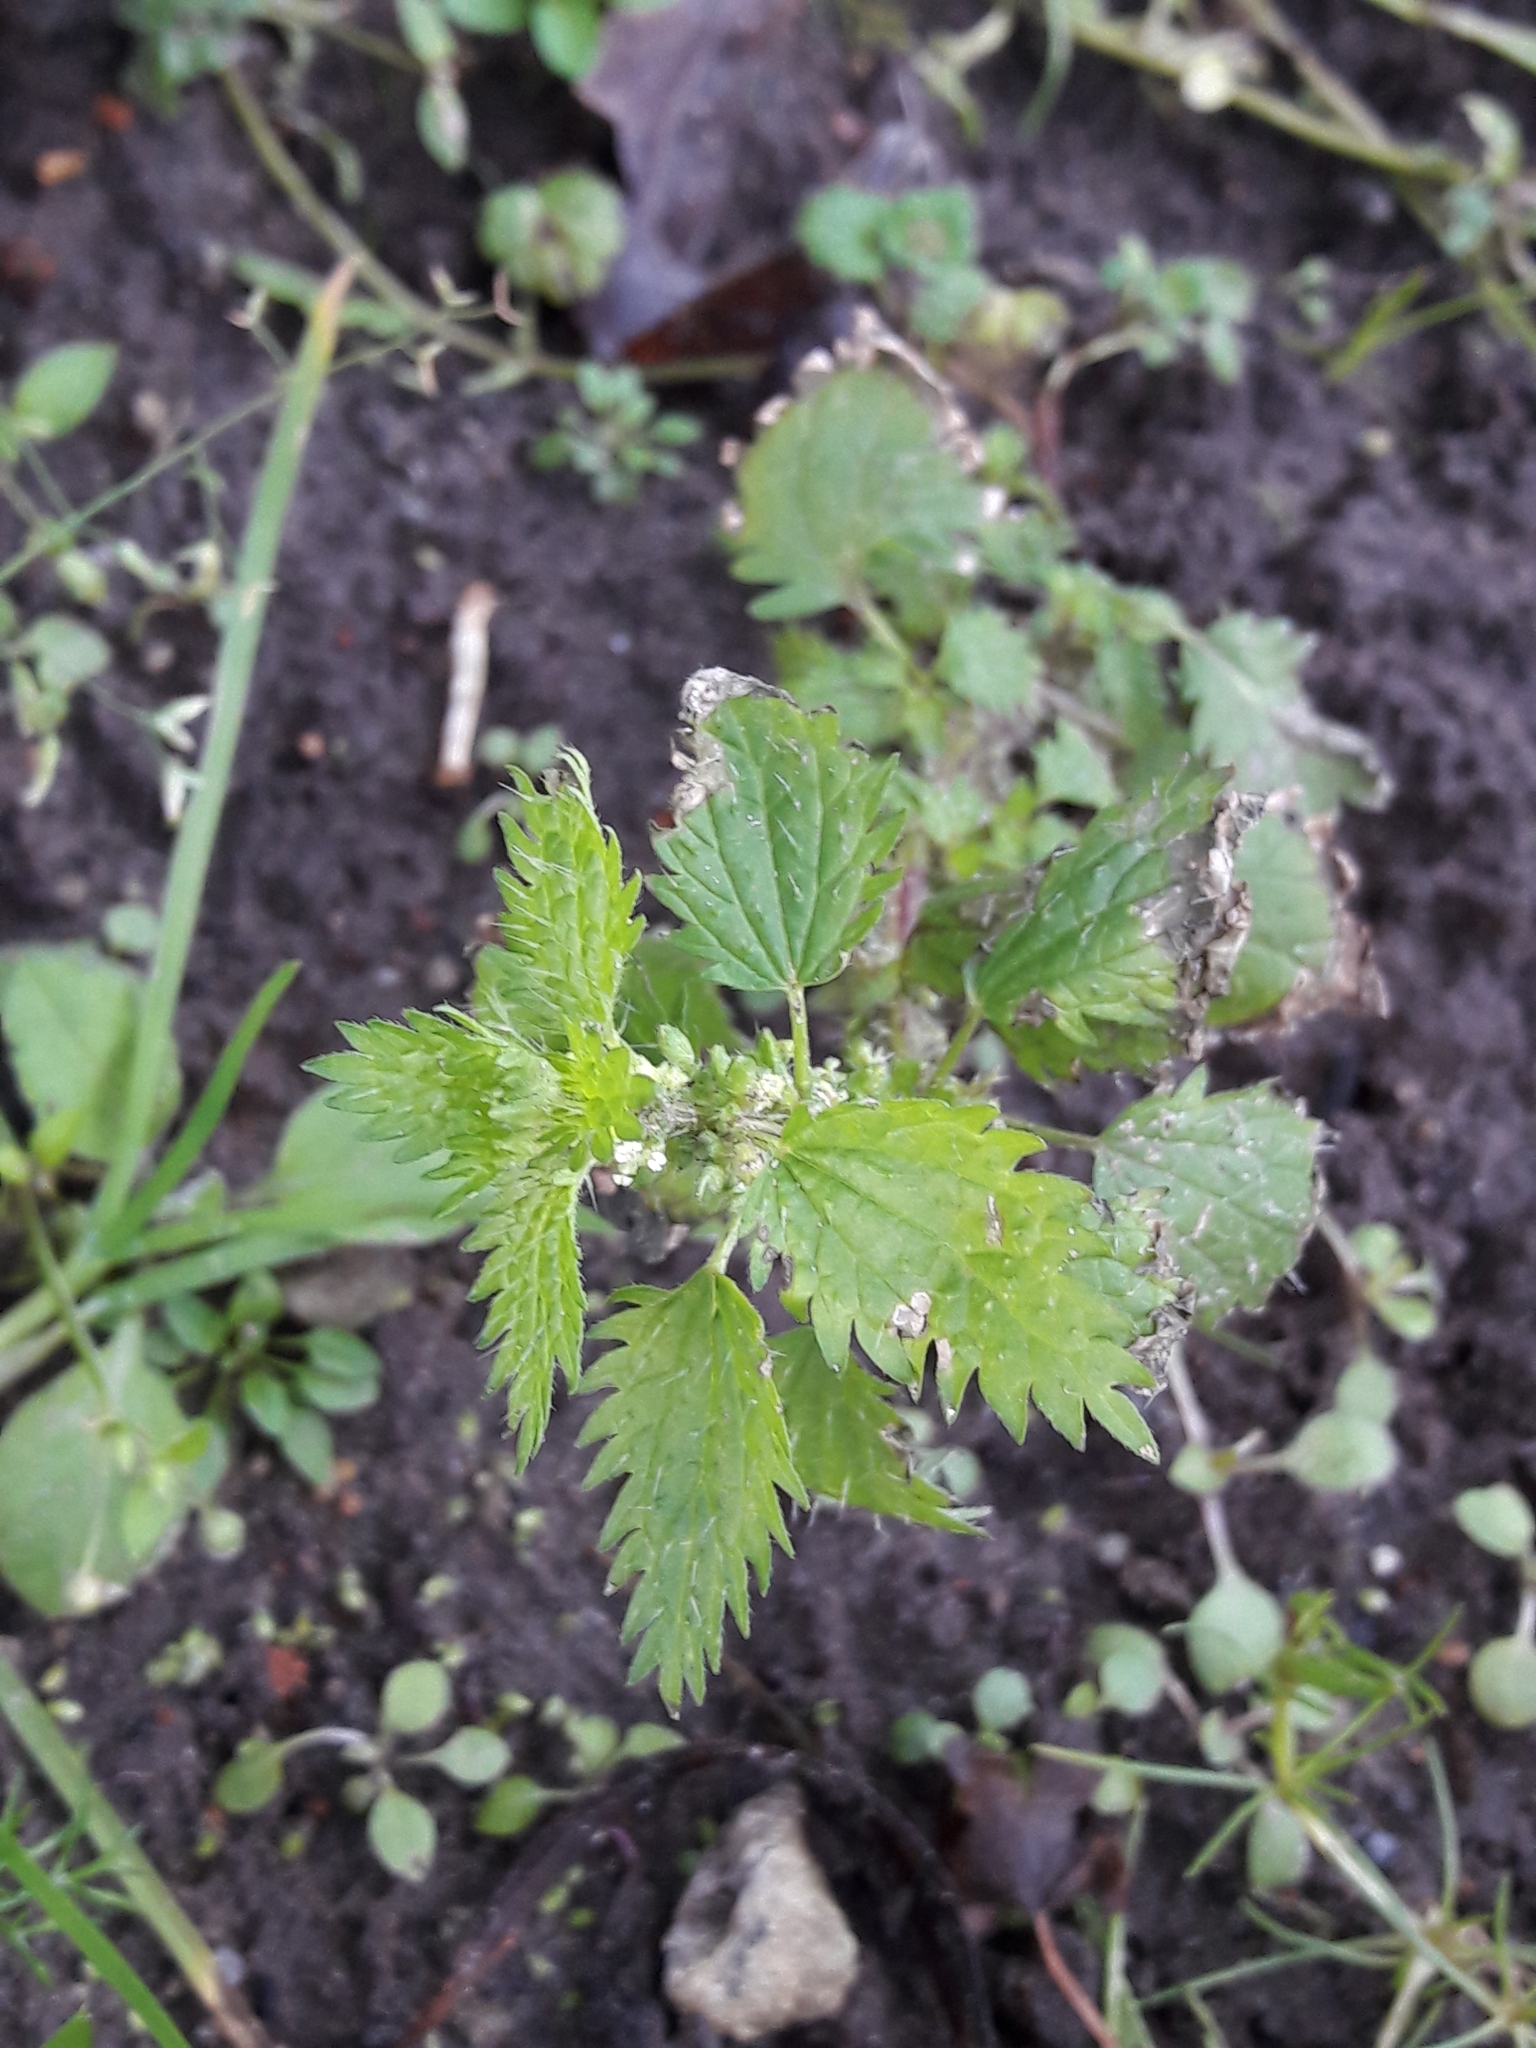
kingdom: Plantae
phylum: Tracheophyta
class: Magnoliopsida
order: Rosales
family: Urticaceae
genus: Urtica
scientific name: Urtica urens
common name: Dwarf nettle
